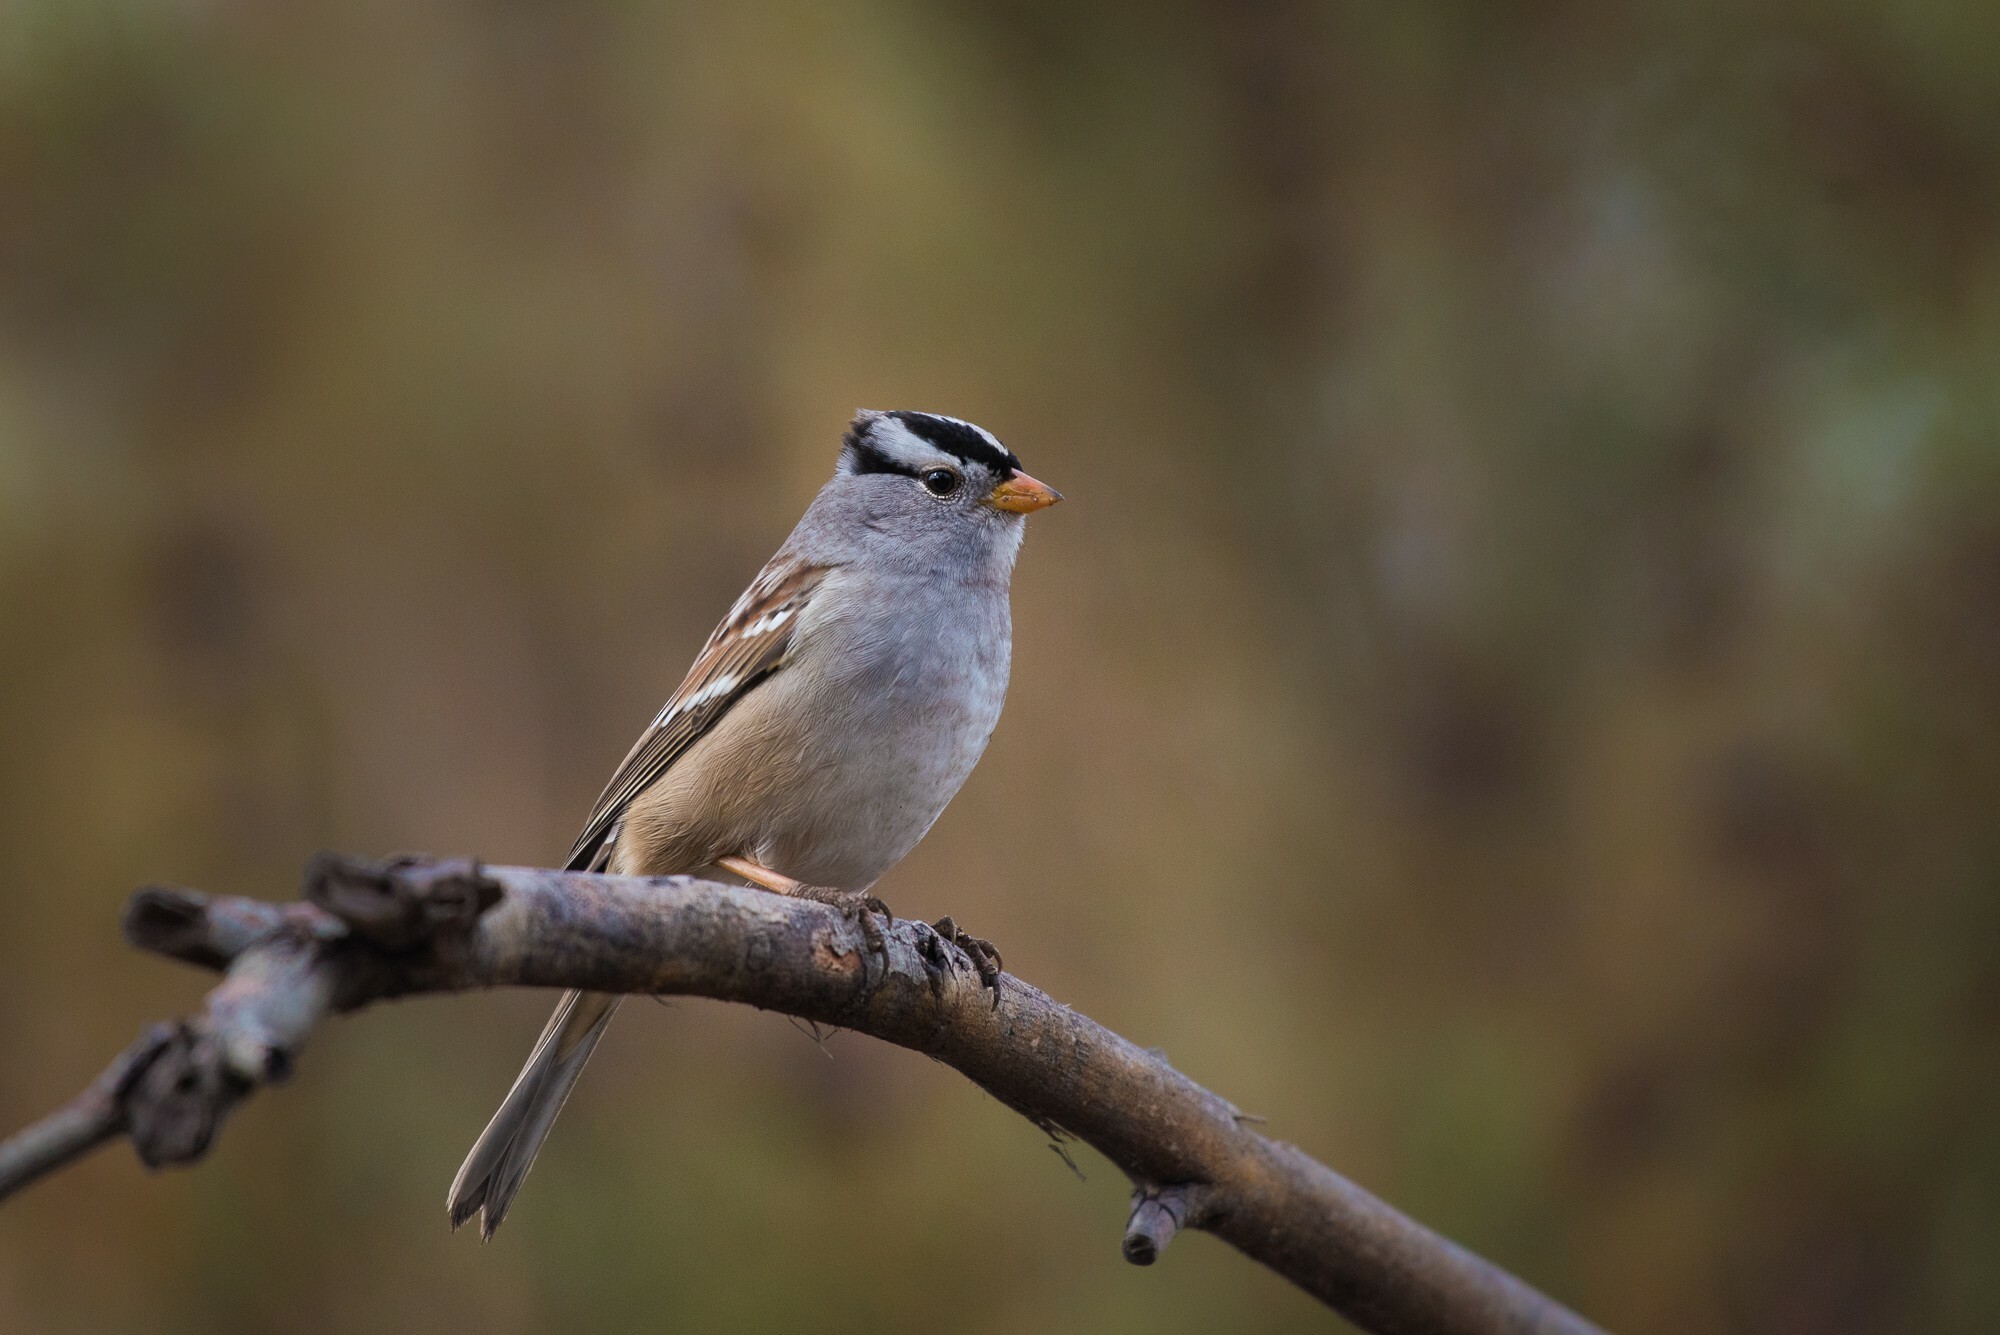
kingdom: Animalia
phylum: Chordata
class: Aves
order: Passeriformes
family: Passerellidae
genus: Zonotrichia
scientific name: Zonotrichia leucophrys
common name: White-crowned sparrow
